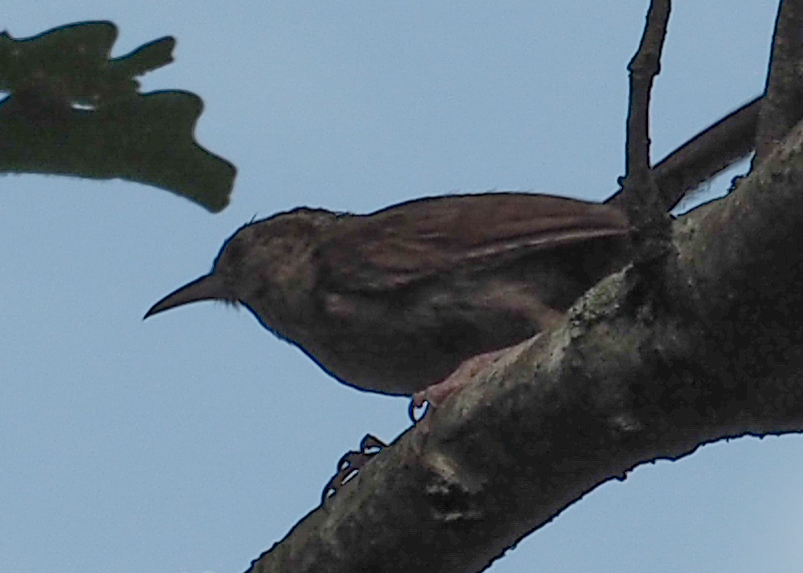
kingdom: Animalia
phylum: Chordata
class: Aves
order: Passeriformes
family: Troglodytidae
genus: Thryothorus
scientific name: Thryothorus ludovicianus
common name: Carolina wren
